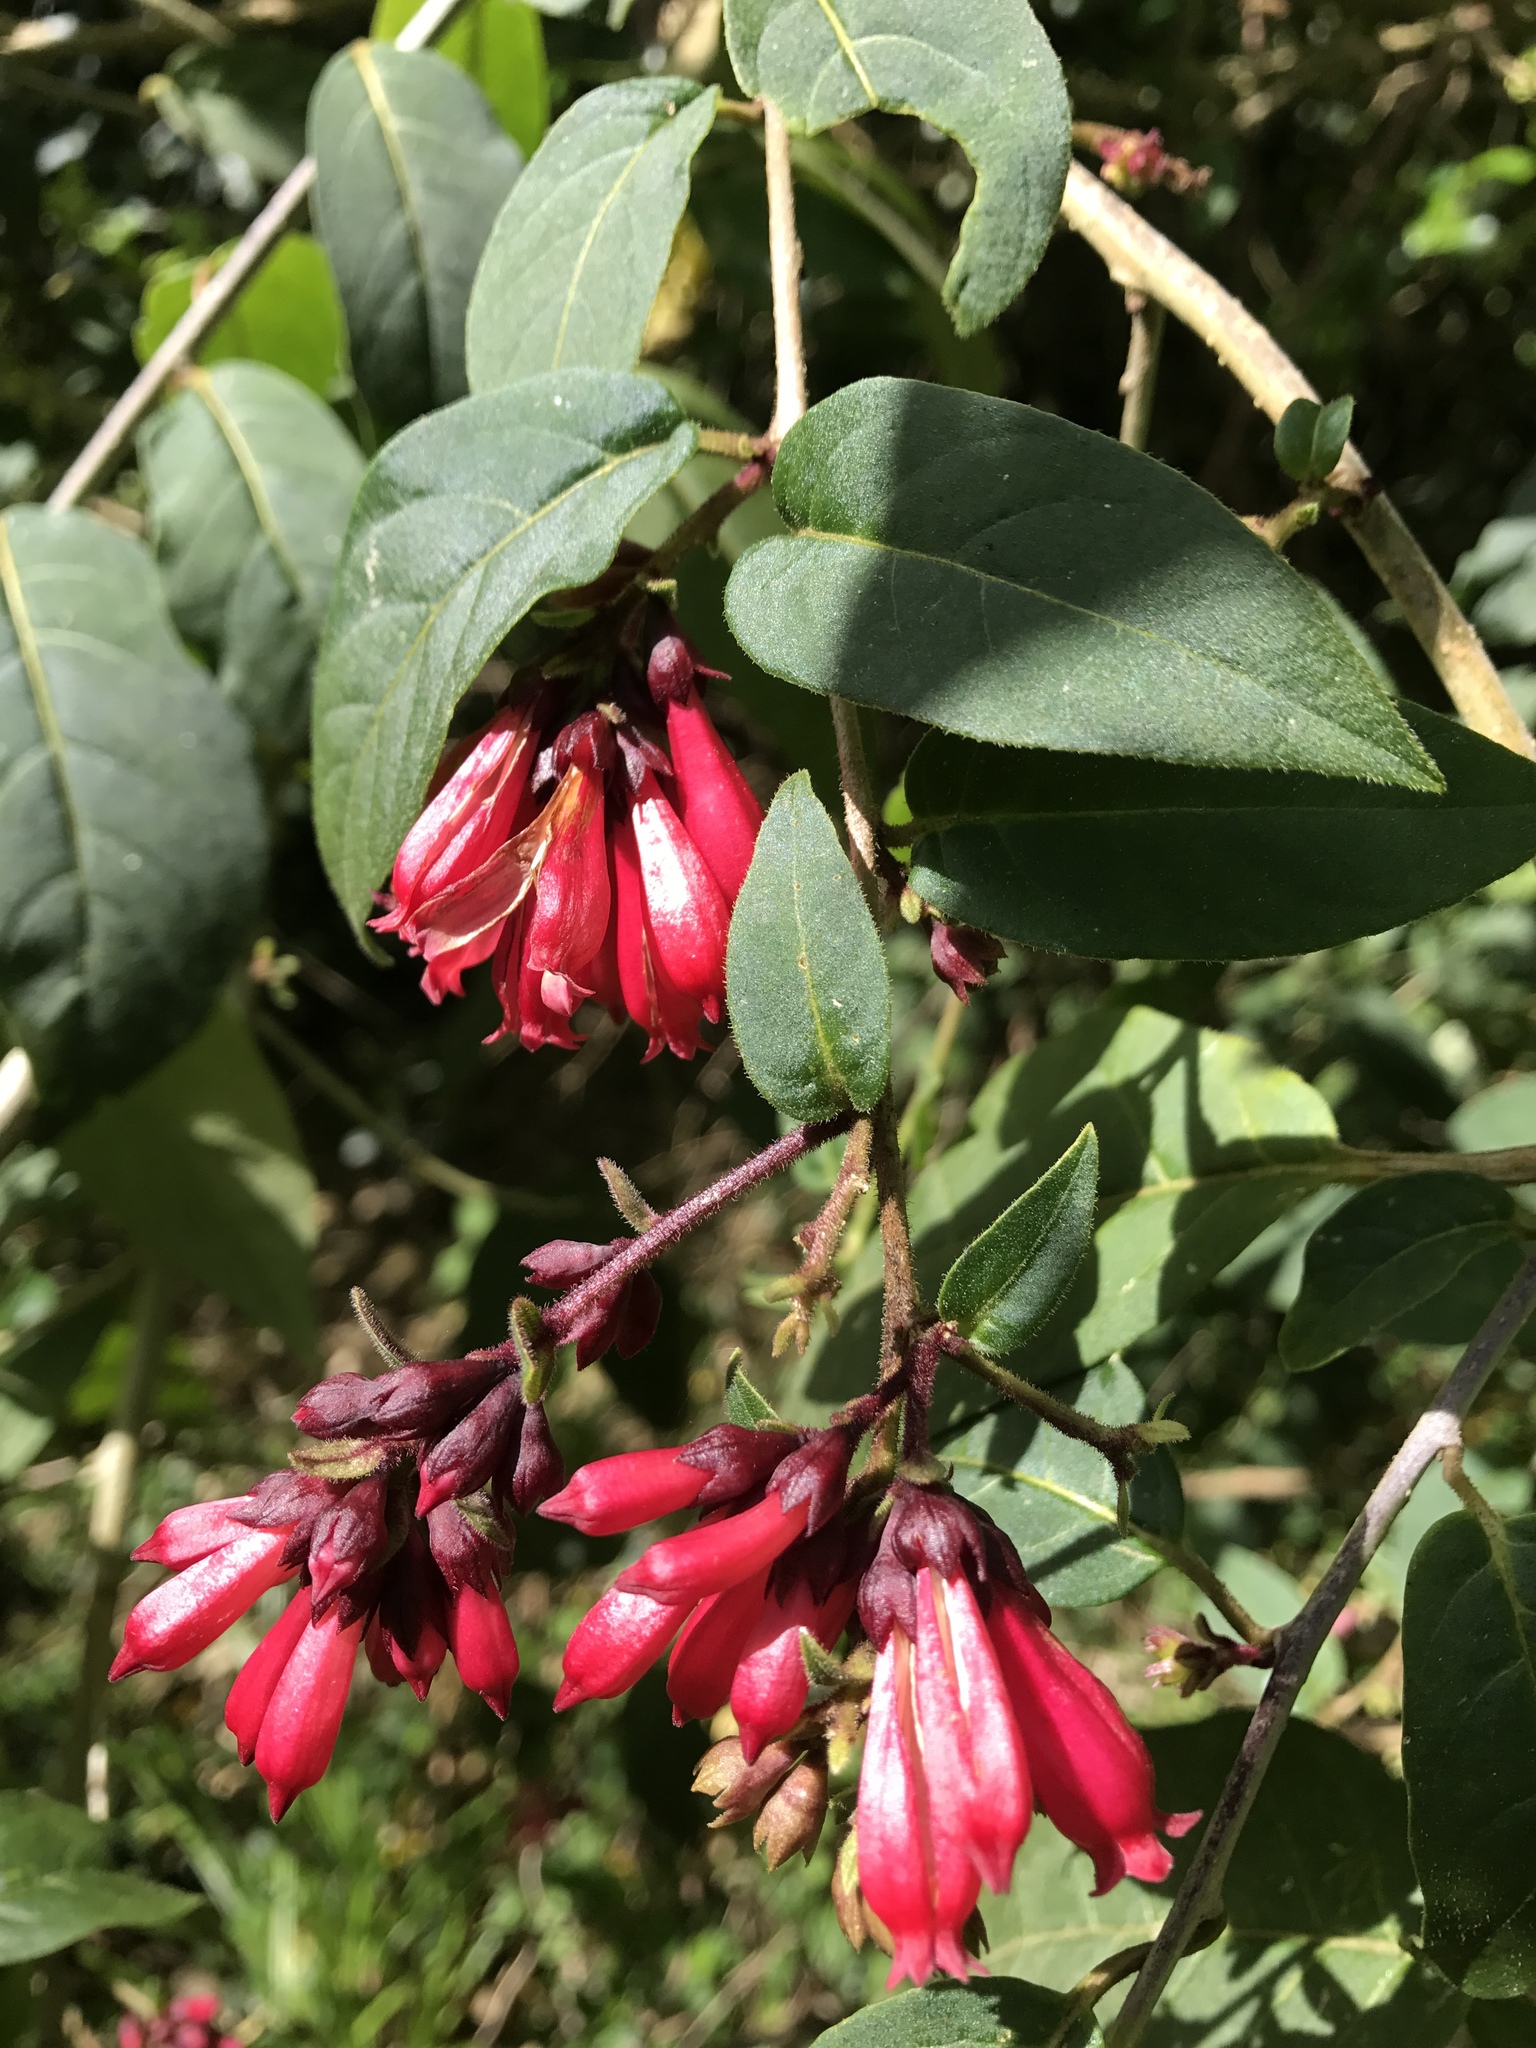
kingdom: Plantae
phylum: Tracheophyta
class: Magnoliopsida
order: Solanales
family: Solanaceae
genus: Cestrum
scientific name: Cestrum elegans
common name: Crimson cestrum
